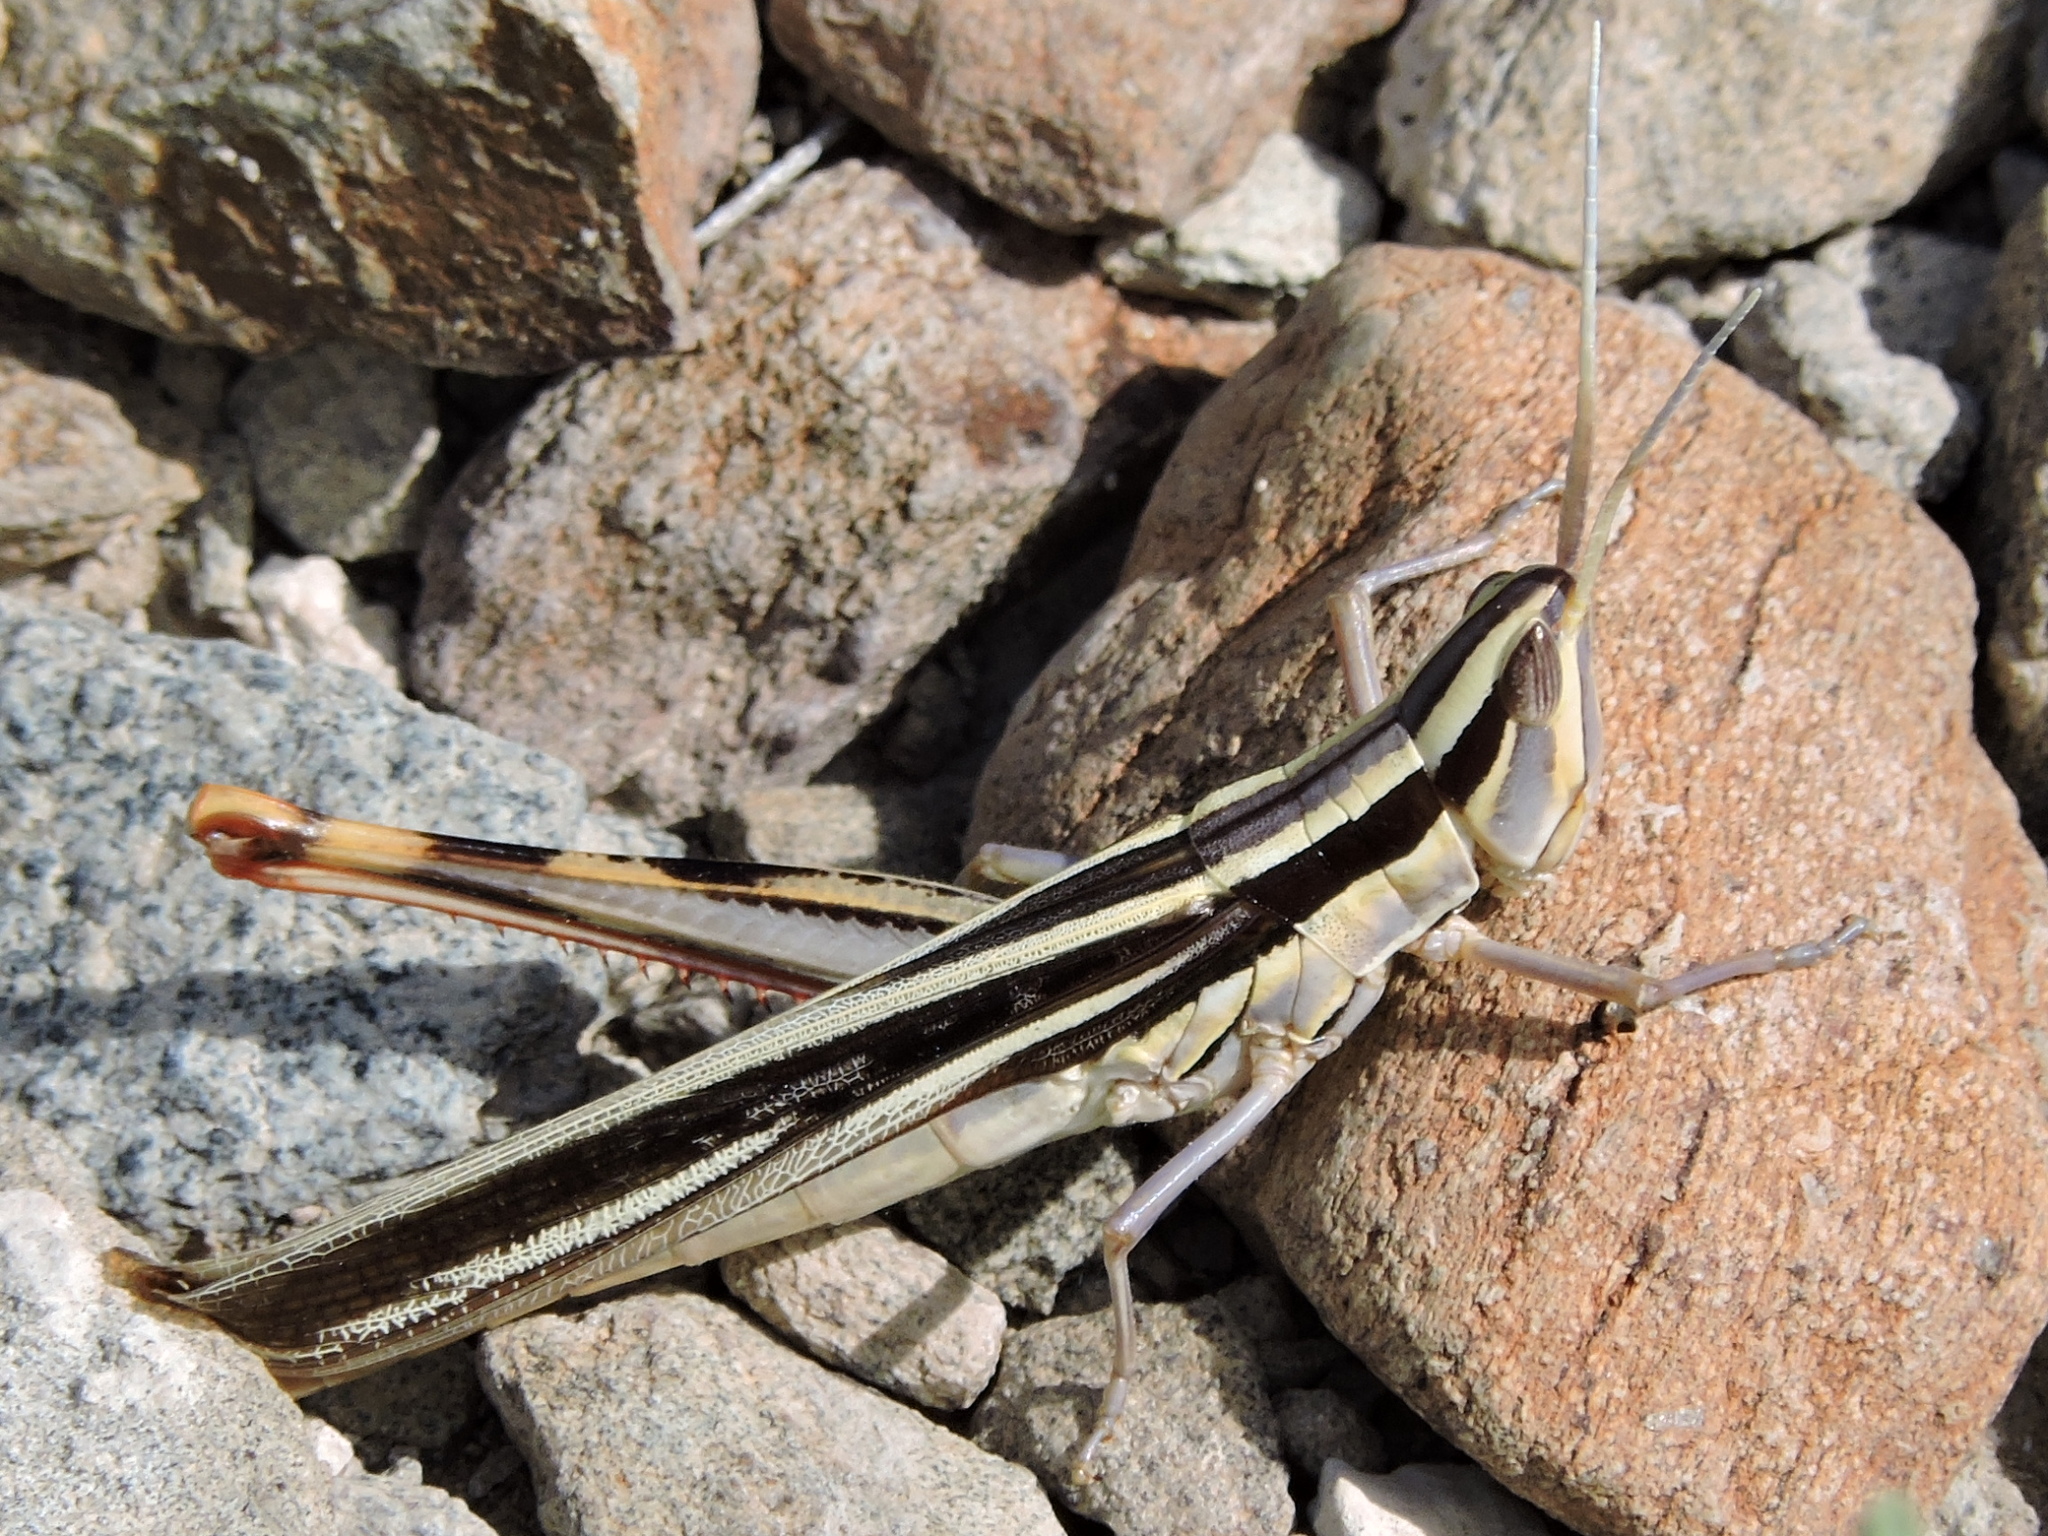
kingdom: Animalia
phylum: Arthropoda
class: Insecta
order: Orthoptera
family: Acrididae
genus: Mermiria
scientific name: Mermiria texana
